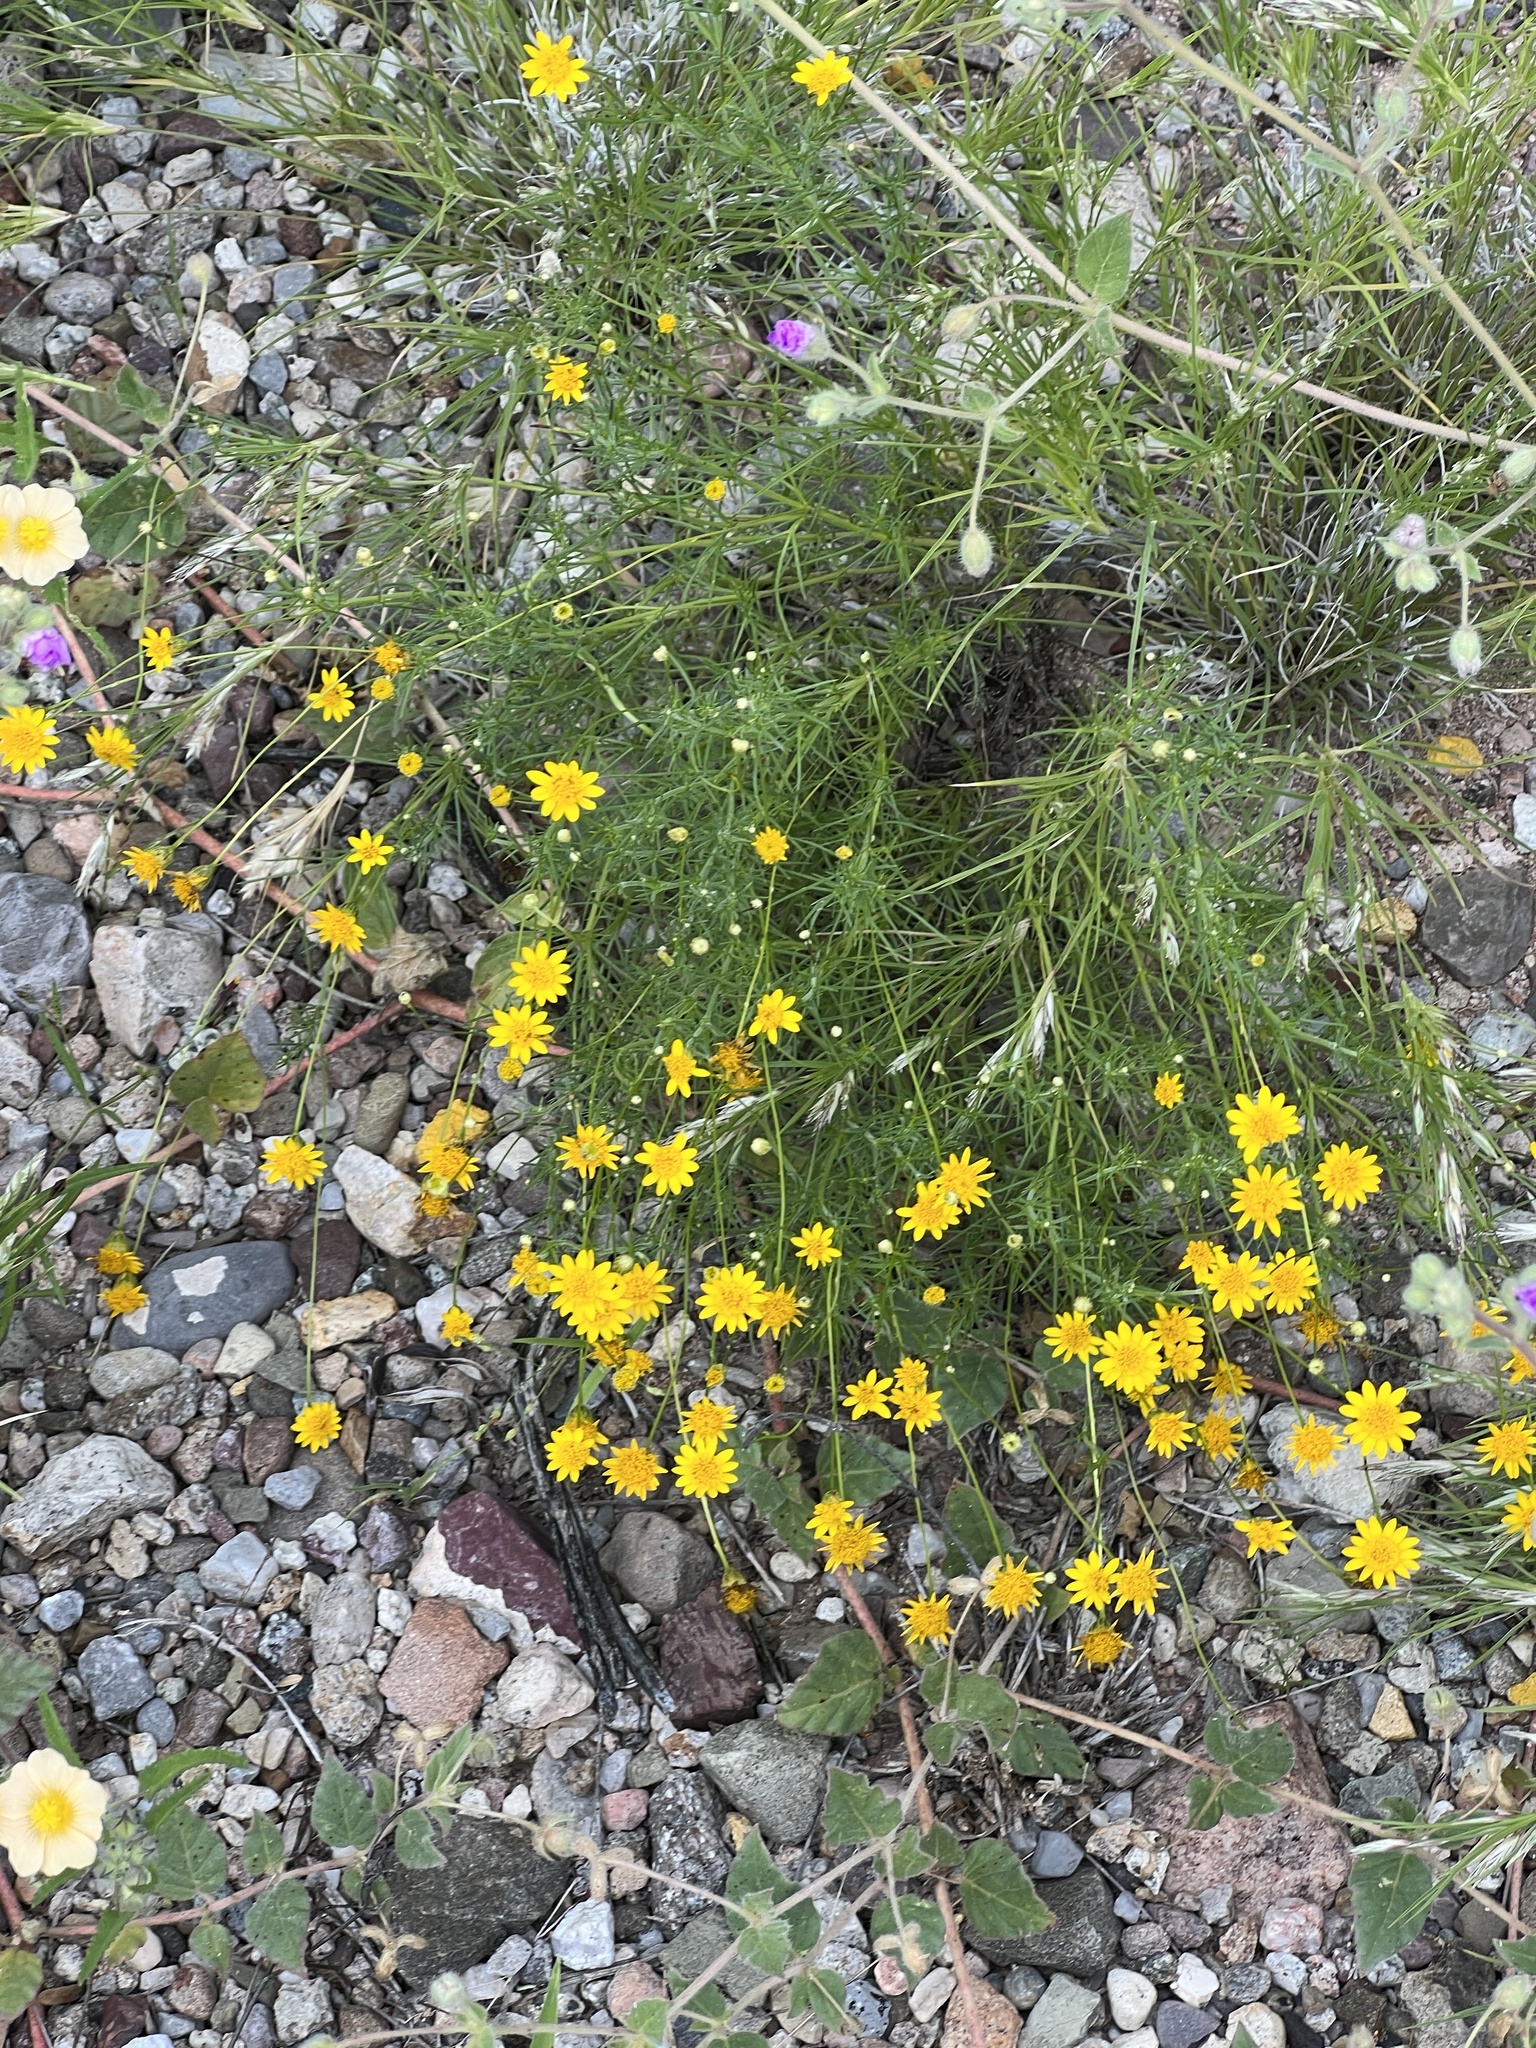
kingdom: Plantae
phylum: Tracheophyta
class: Magnoliopsida
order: Asterales
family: Asteraceae
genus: Thymophylla
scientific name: Thymophylla pentachaeta
